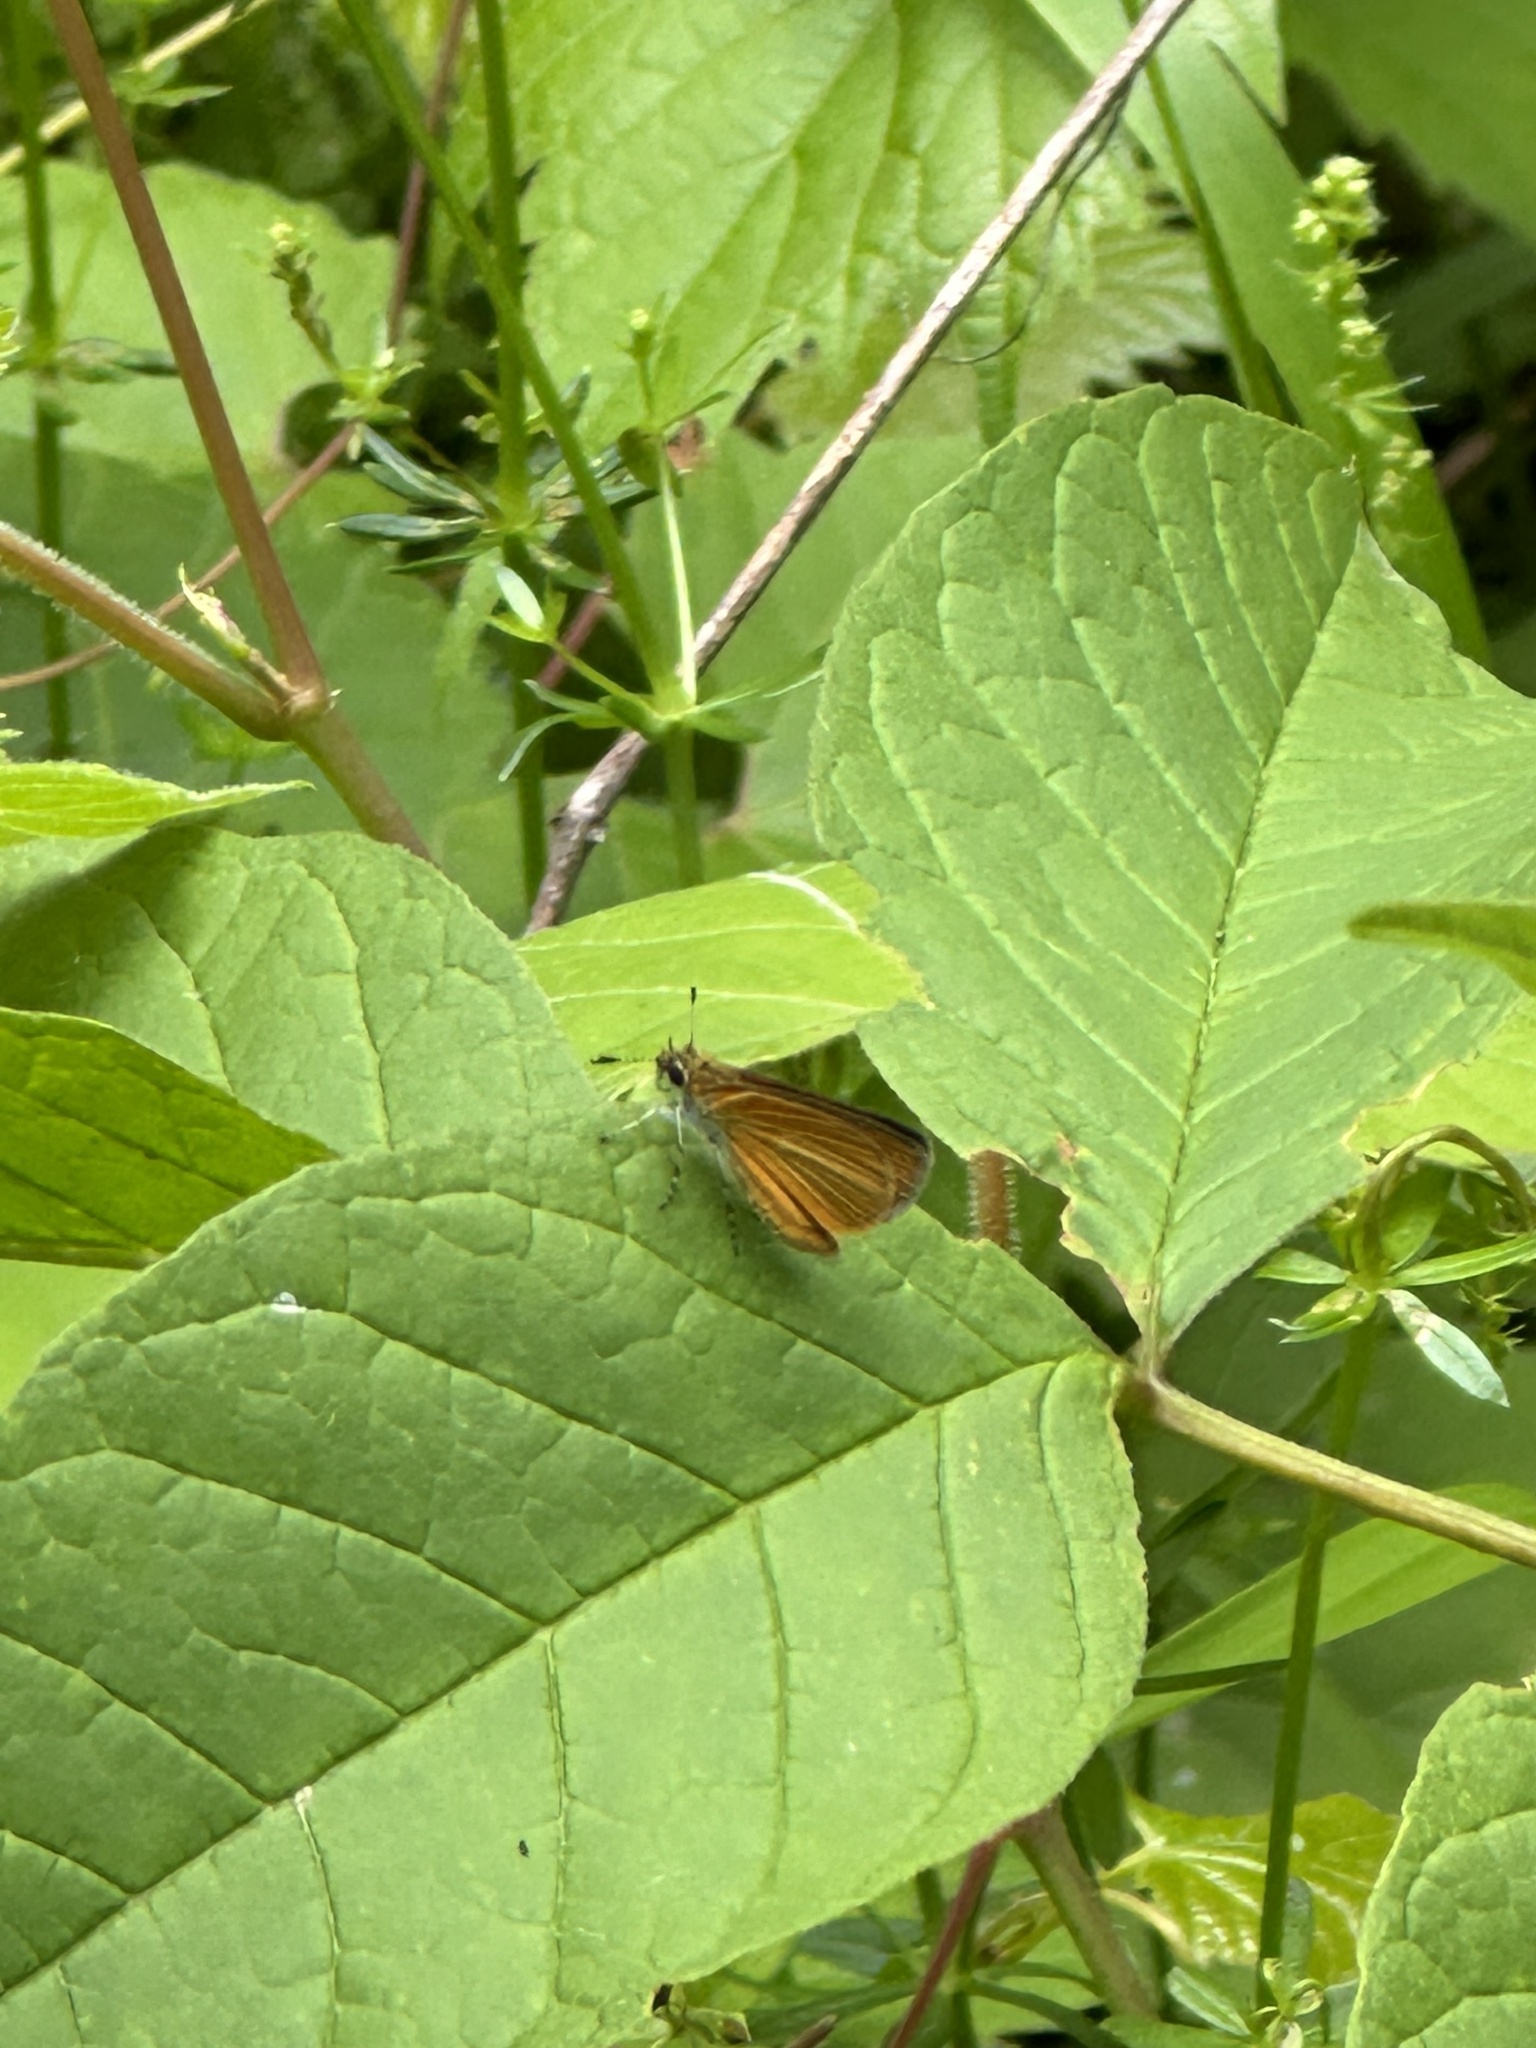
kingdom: Animalia
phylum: Arthropoda
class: Insecta
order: Lepidoptera
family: Hesperiidae
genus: Ancyloxypha
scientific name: Ancyloxypha numitor
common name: Least skipper
